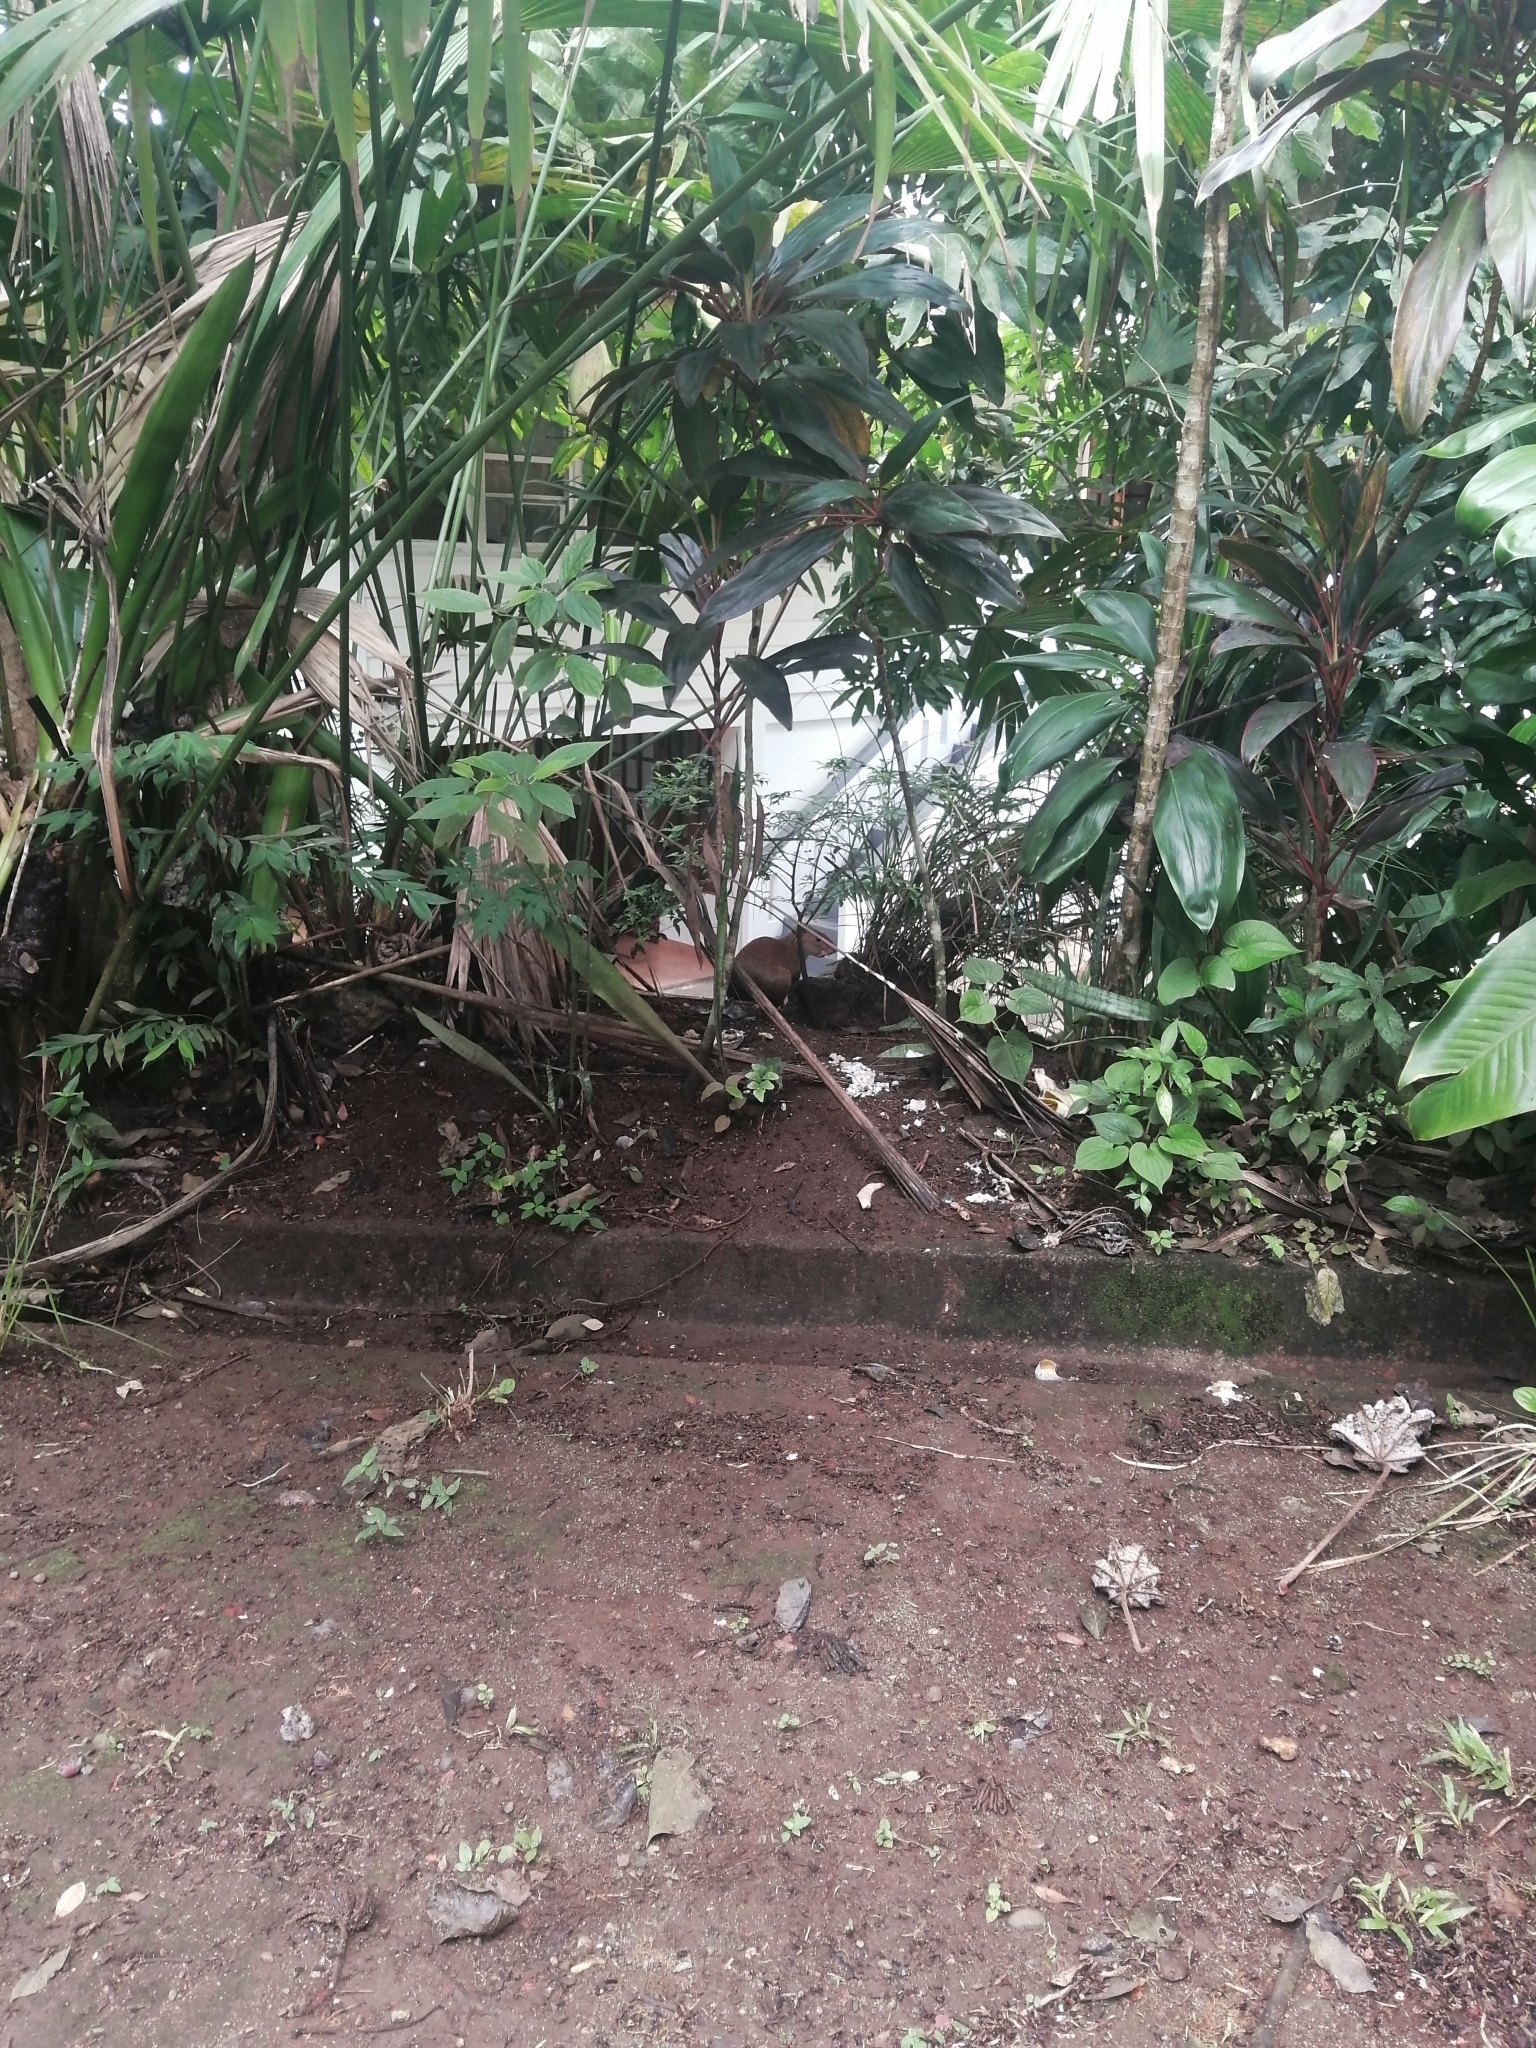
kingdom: Animalia
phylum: Chordata
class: Mammalia
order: Rodentia
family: Dasyproctidae
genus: Dasyprocta
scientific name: Dasyprocta punctata
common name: Central american agouti
